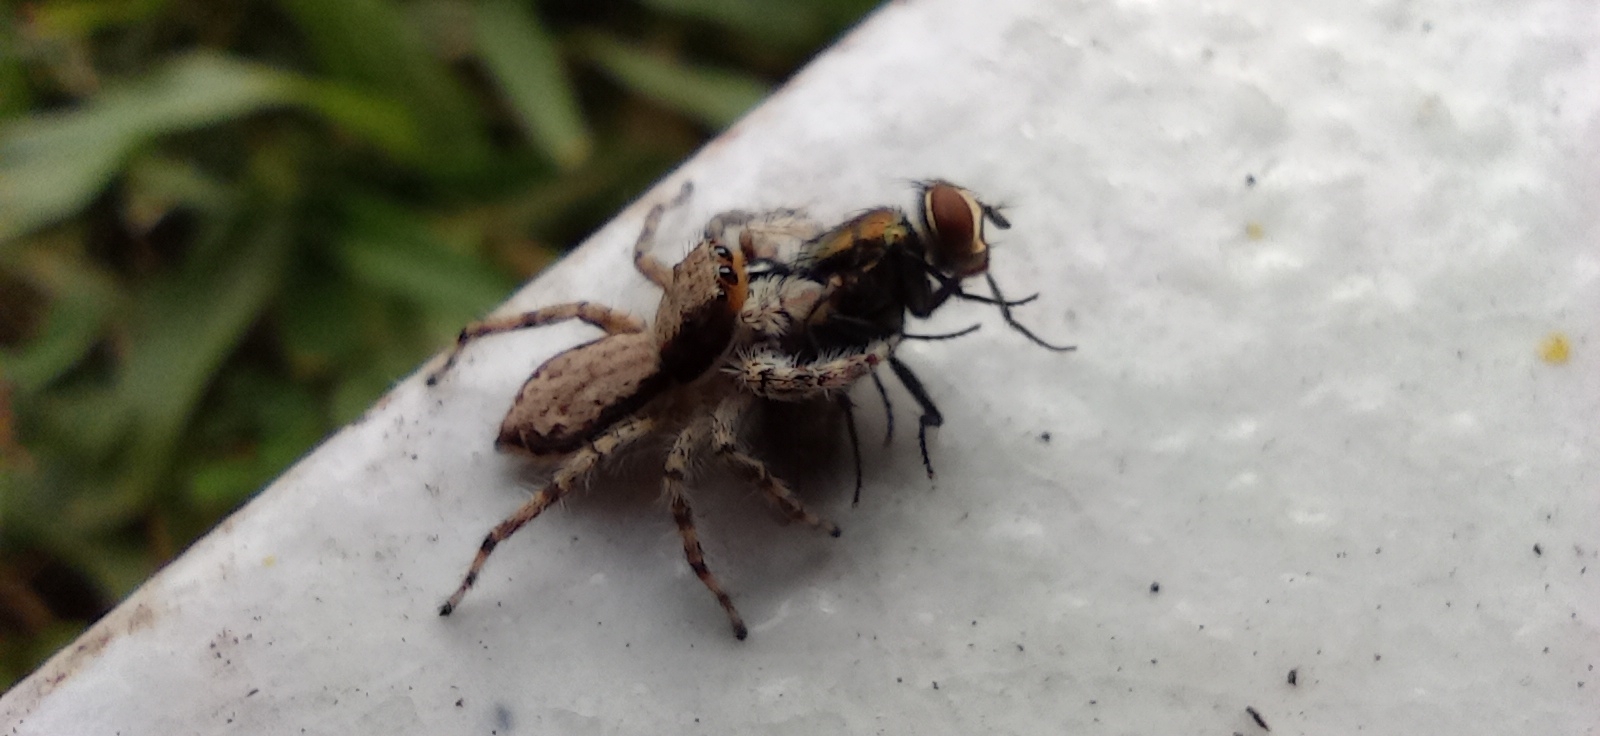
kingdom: Animalia
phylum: Arthropoda
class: Arachnida
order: Araneae
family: Salticidae
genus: Menemerus
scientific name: Menemerus bivittatus
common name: Gray wall jumper
